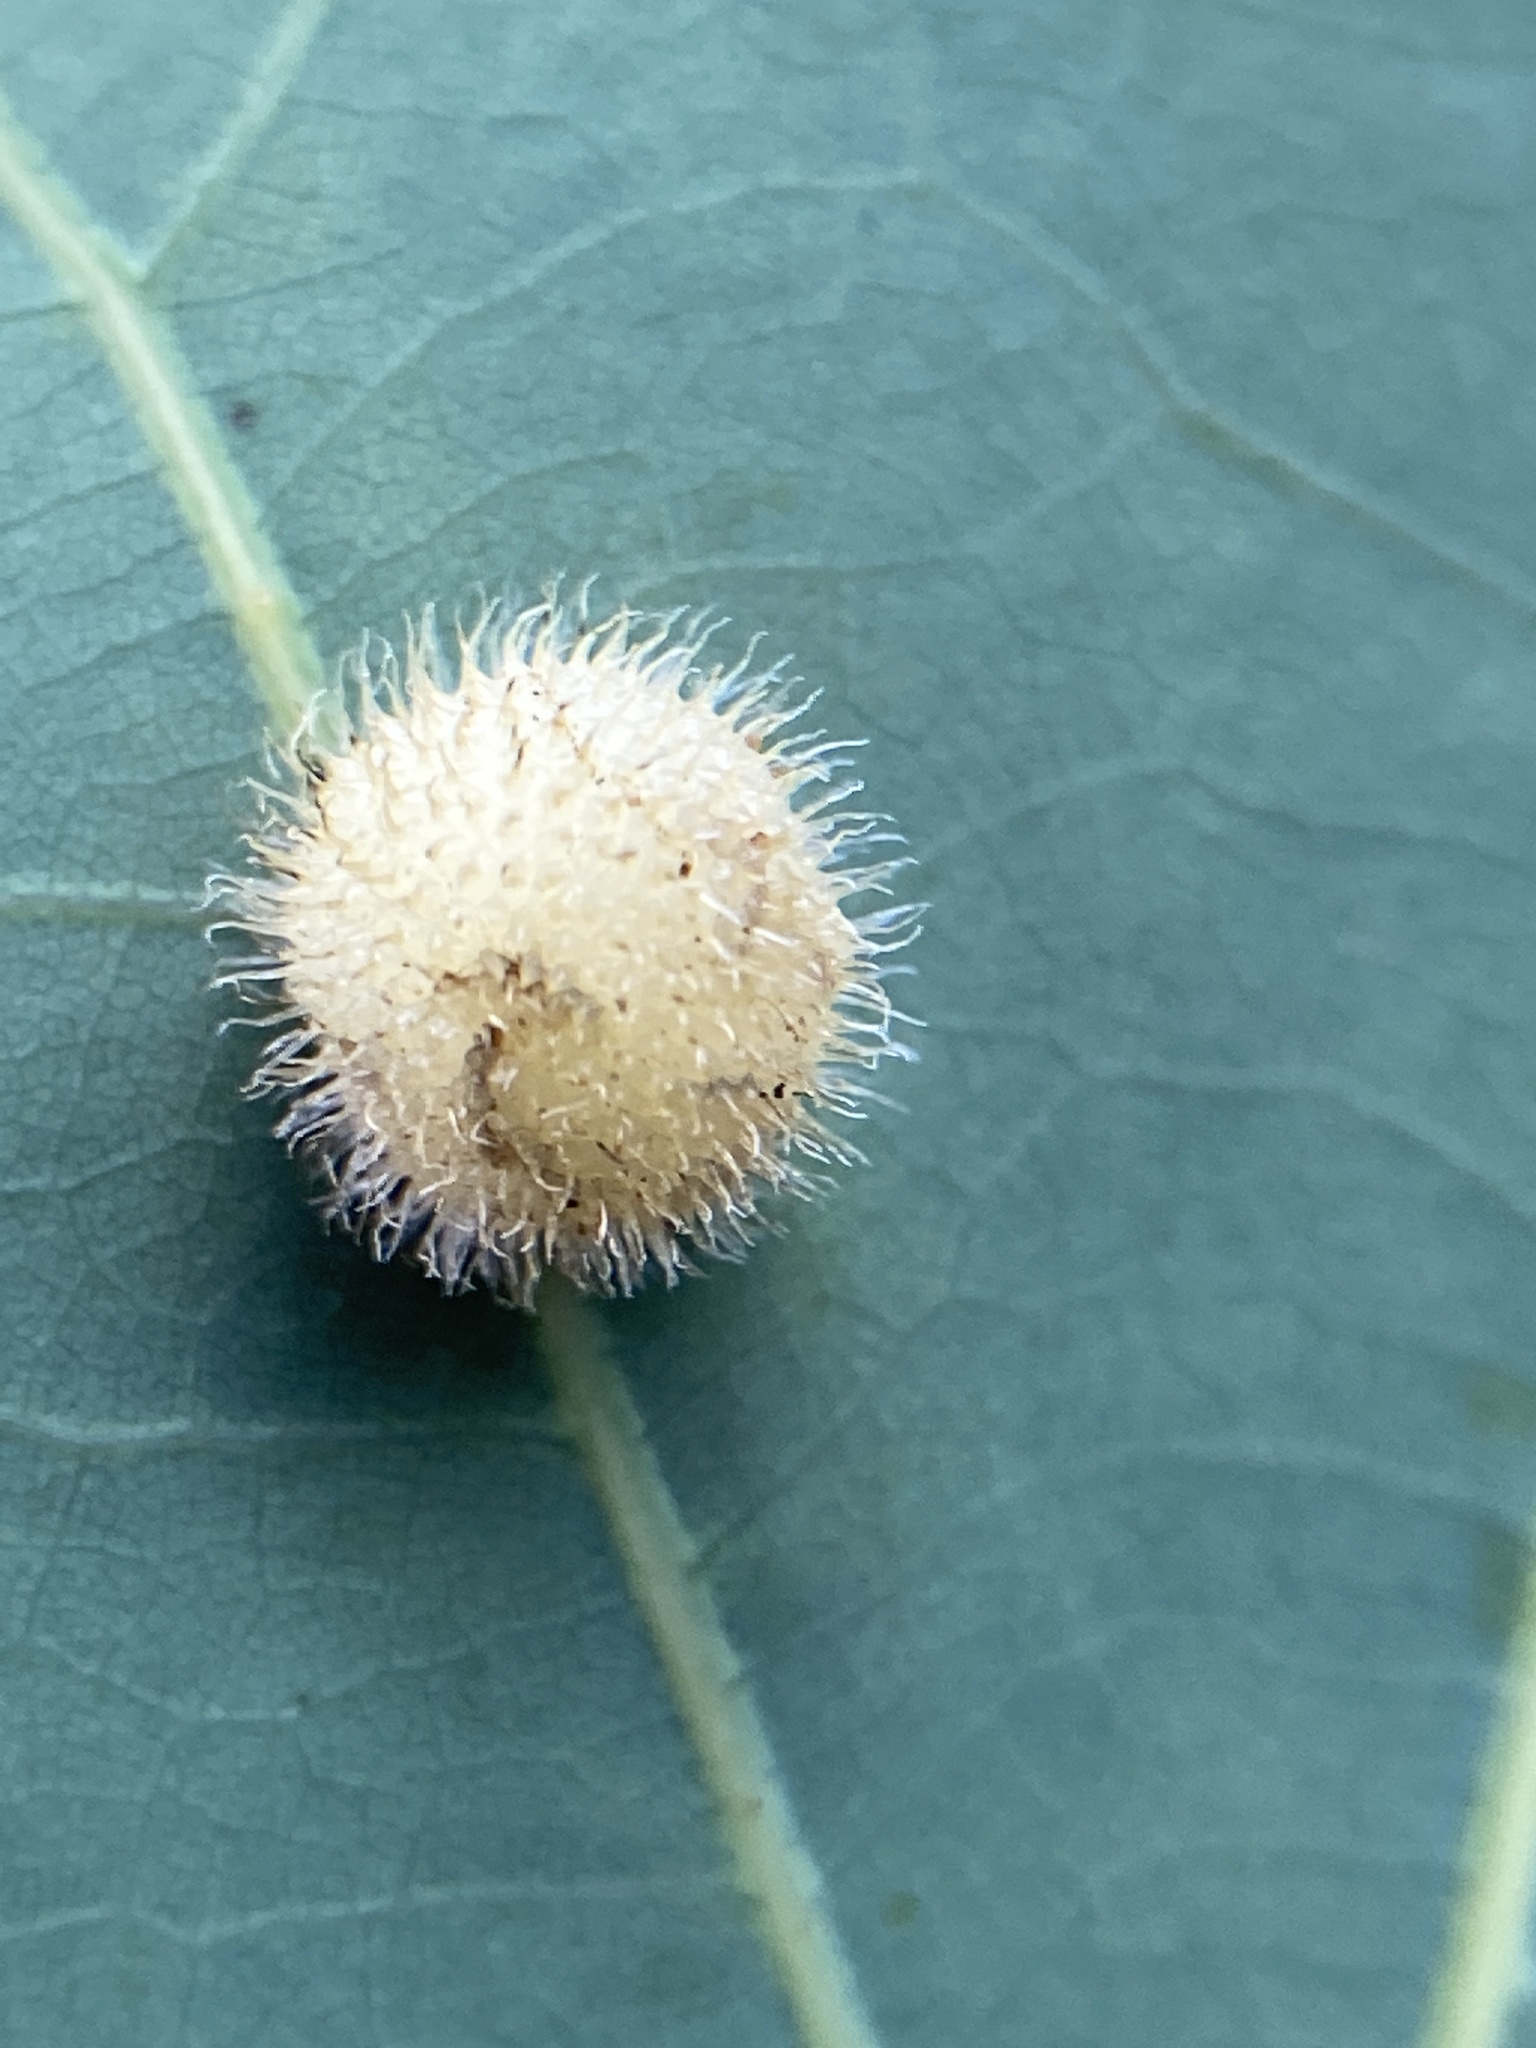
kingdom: Animalia
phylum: Arthropoda
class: Insecta
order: Hymenoptera
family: Cynipidae
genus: Acraspis
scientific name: Acraspis erinacei
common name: Hedgehog gall wasp
